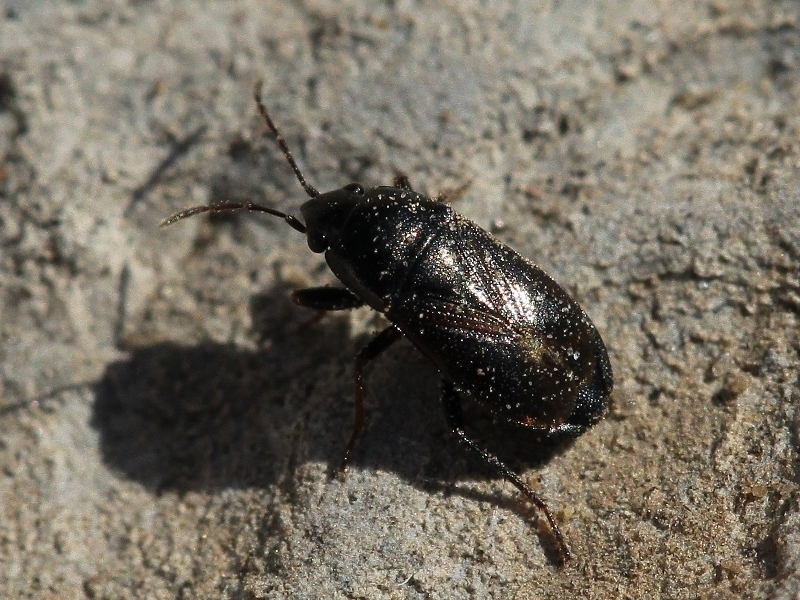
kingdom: Animalia
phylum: Arthropoda
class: Insecta
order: Hemiptera
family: Rhyparochromidae
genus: Lamprodema
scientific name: Lamprodema maura
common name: Seed bug
